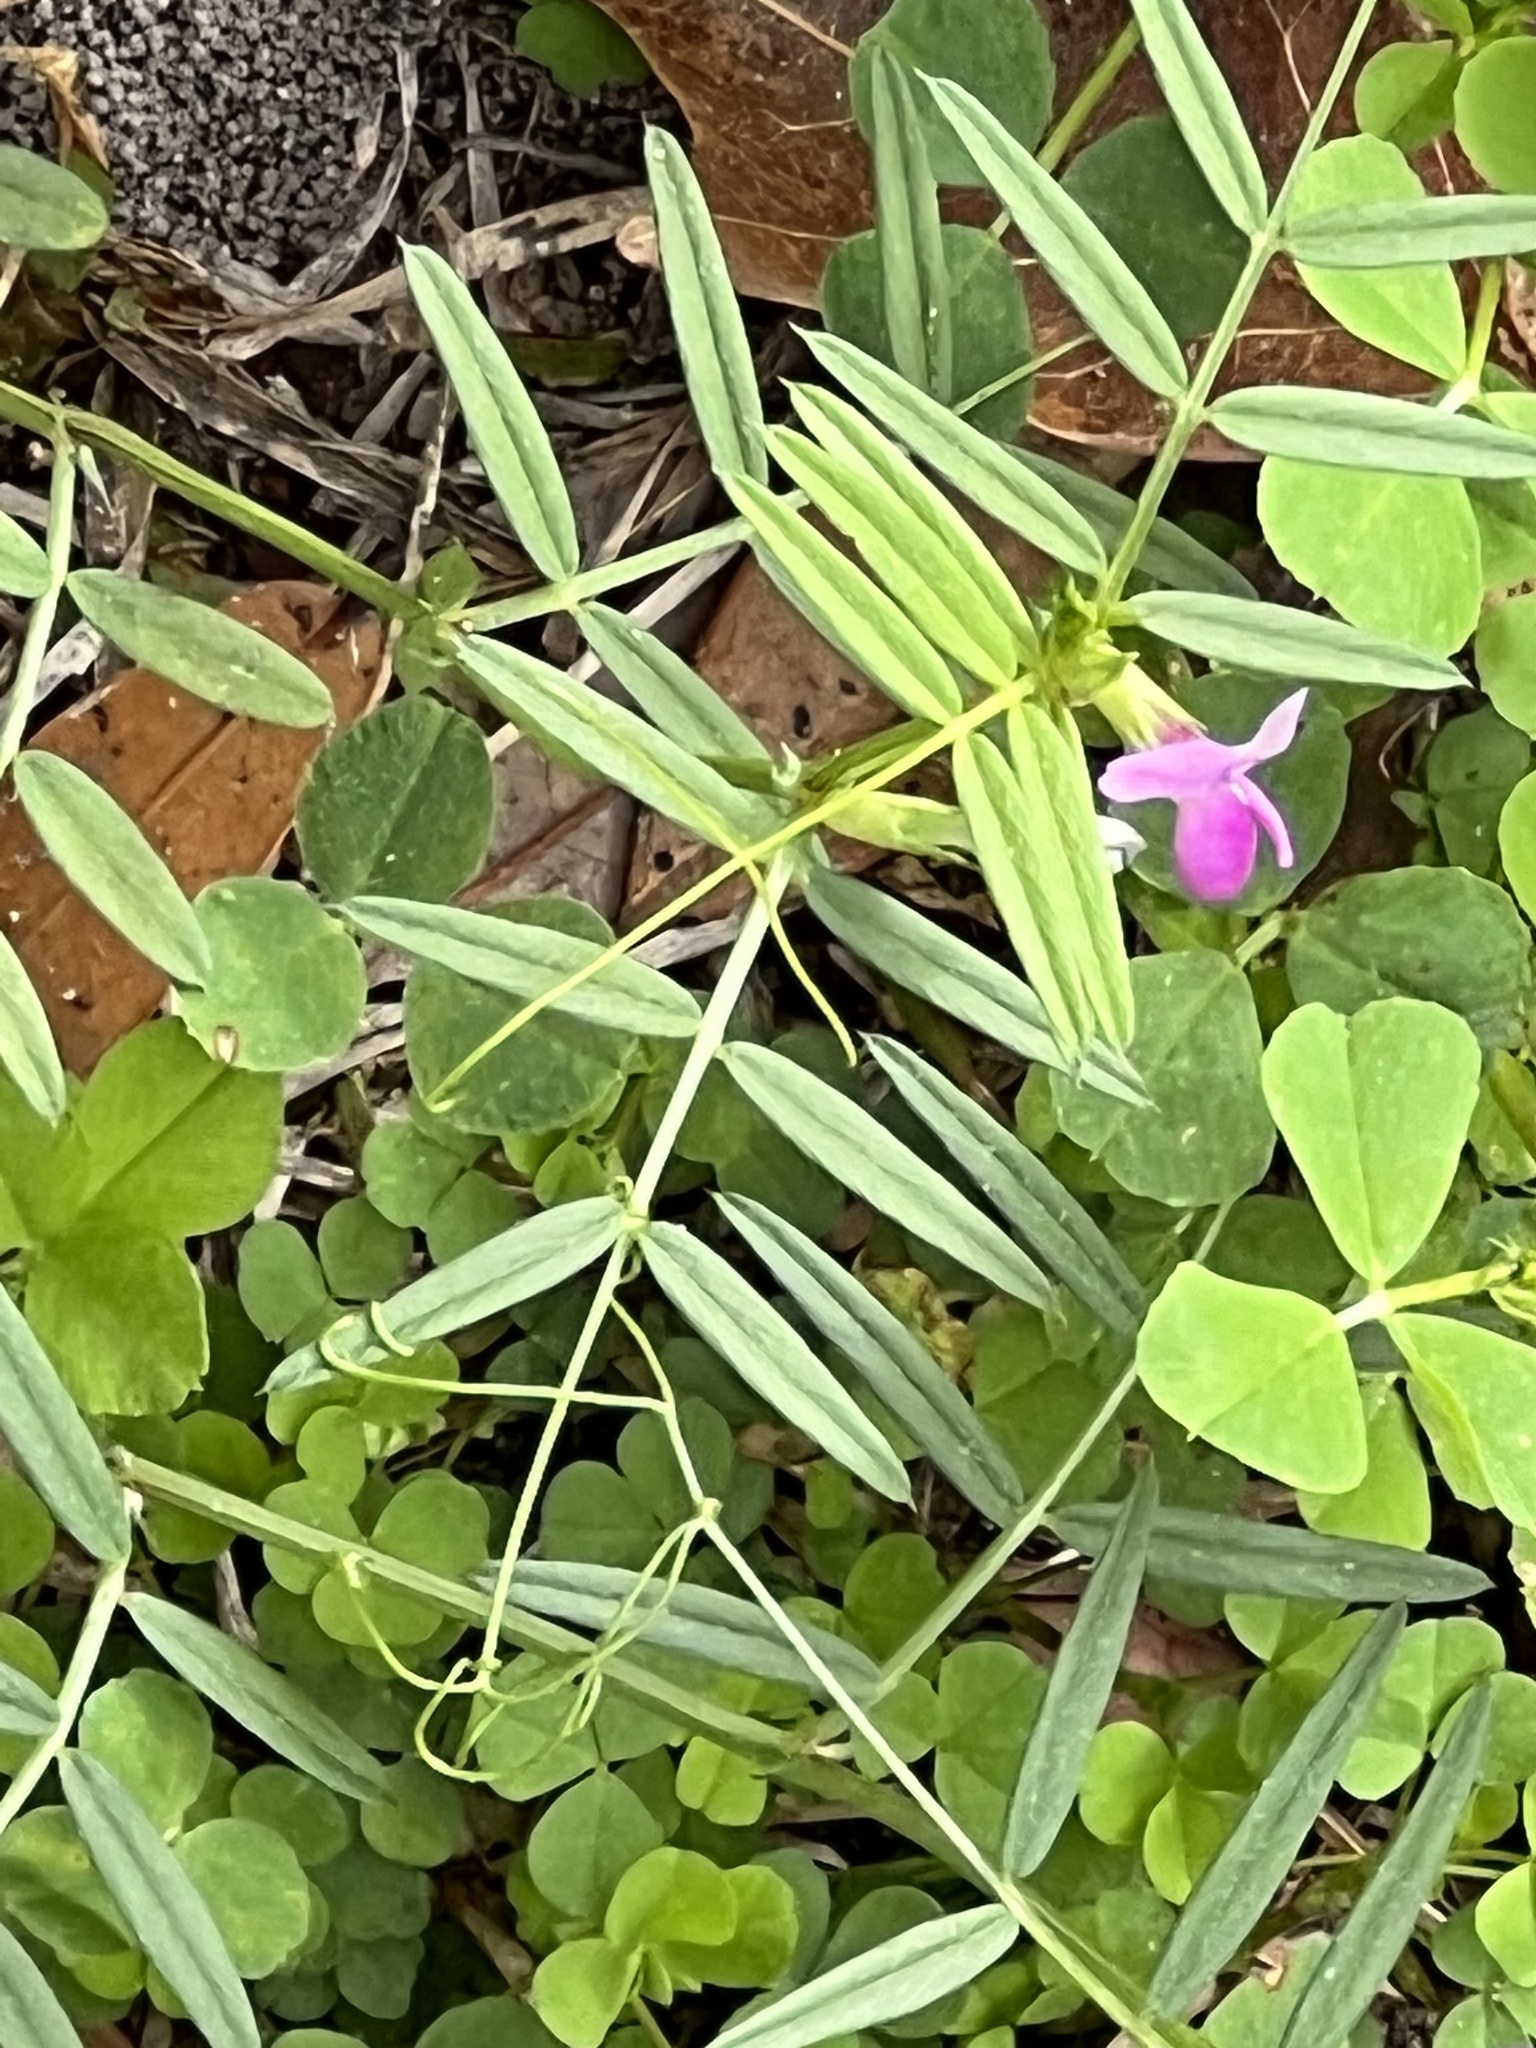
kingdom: Plantae
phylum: Tracheophyta
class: Magnoliopsida
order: Fabales
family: Fabaceae
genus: Vicia
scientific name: Vicia sativa
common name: Garden vetch
